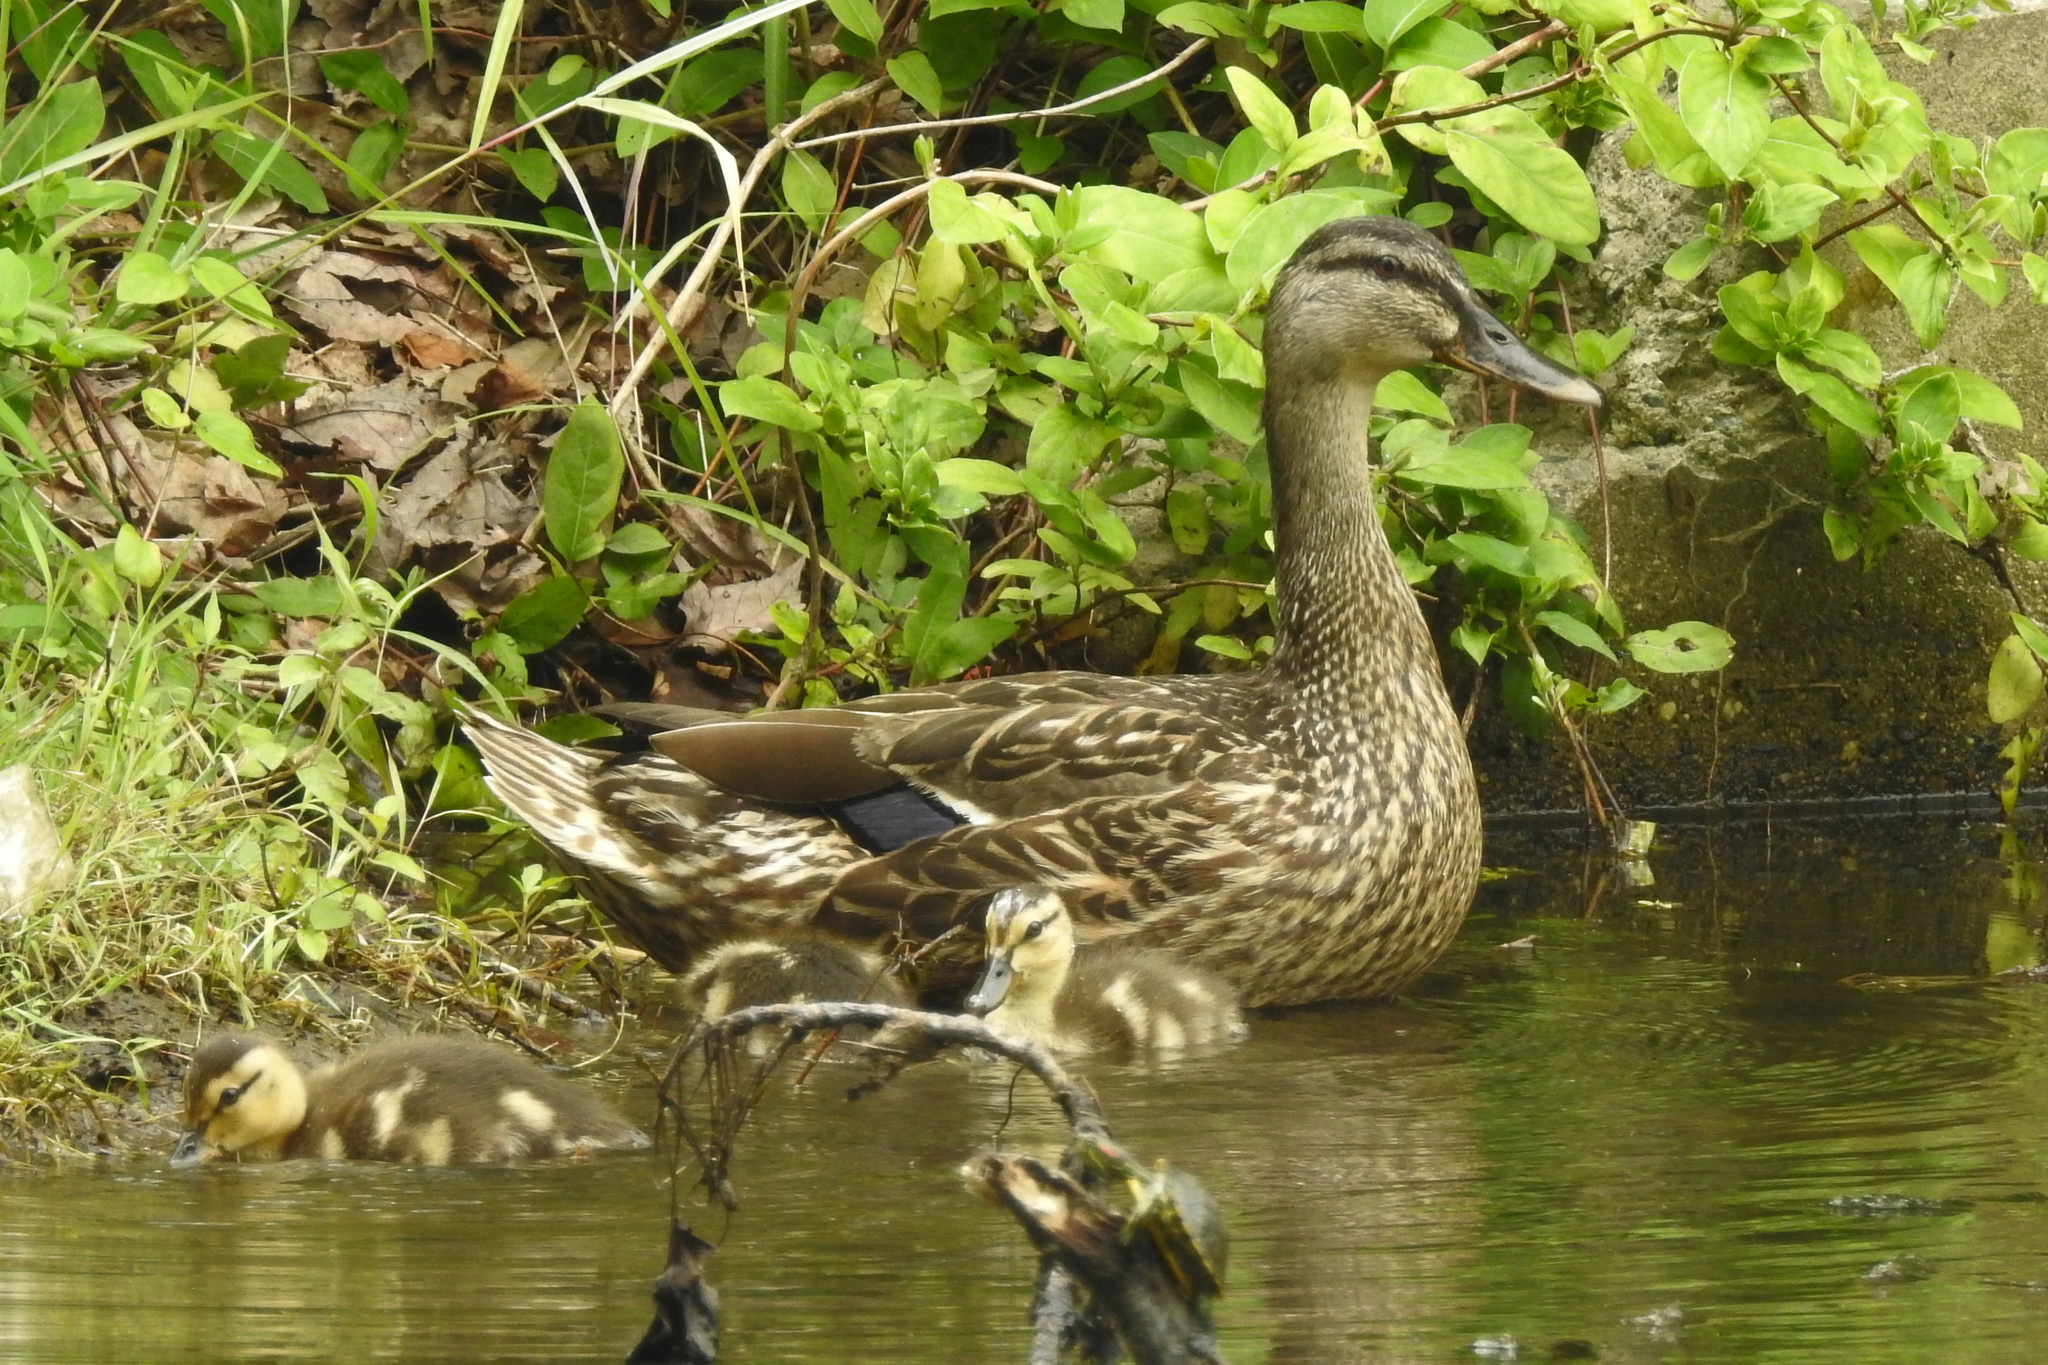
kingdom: Animalia
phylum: Chordata
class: Aves
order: Anseriformes
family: Anatidae
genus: Anas
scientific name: Anas platyrhynchos
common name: Mallard
